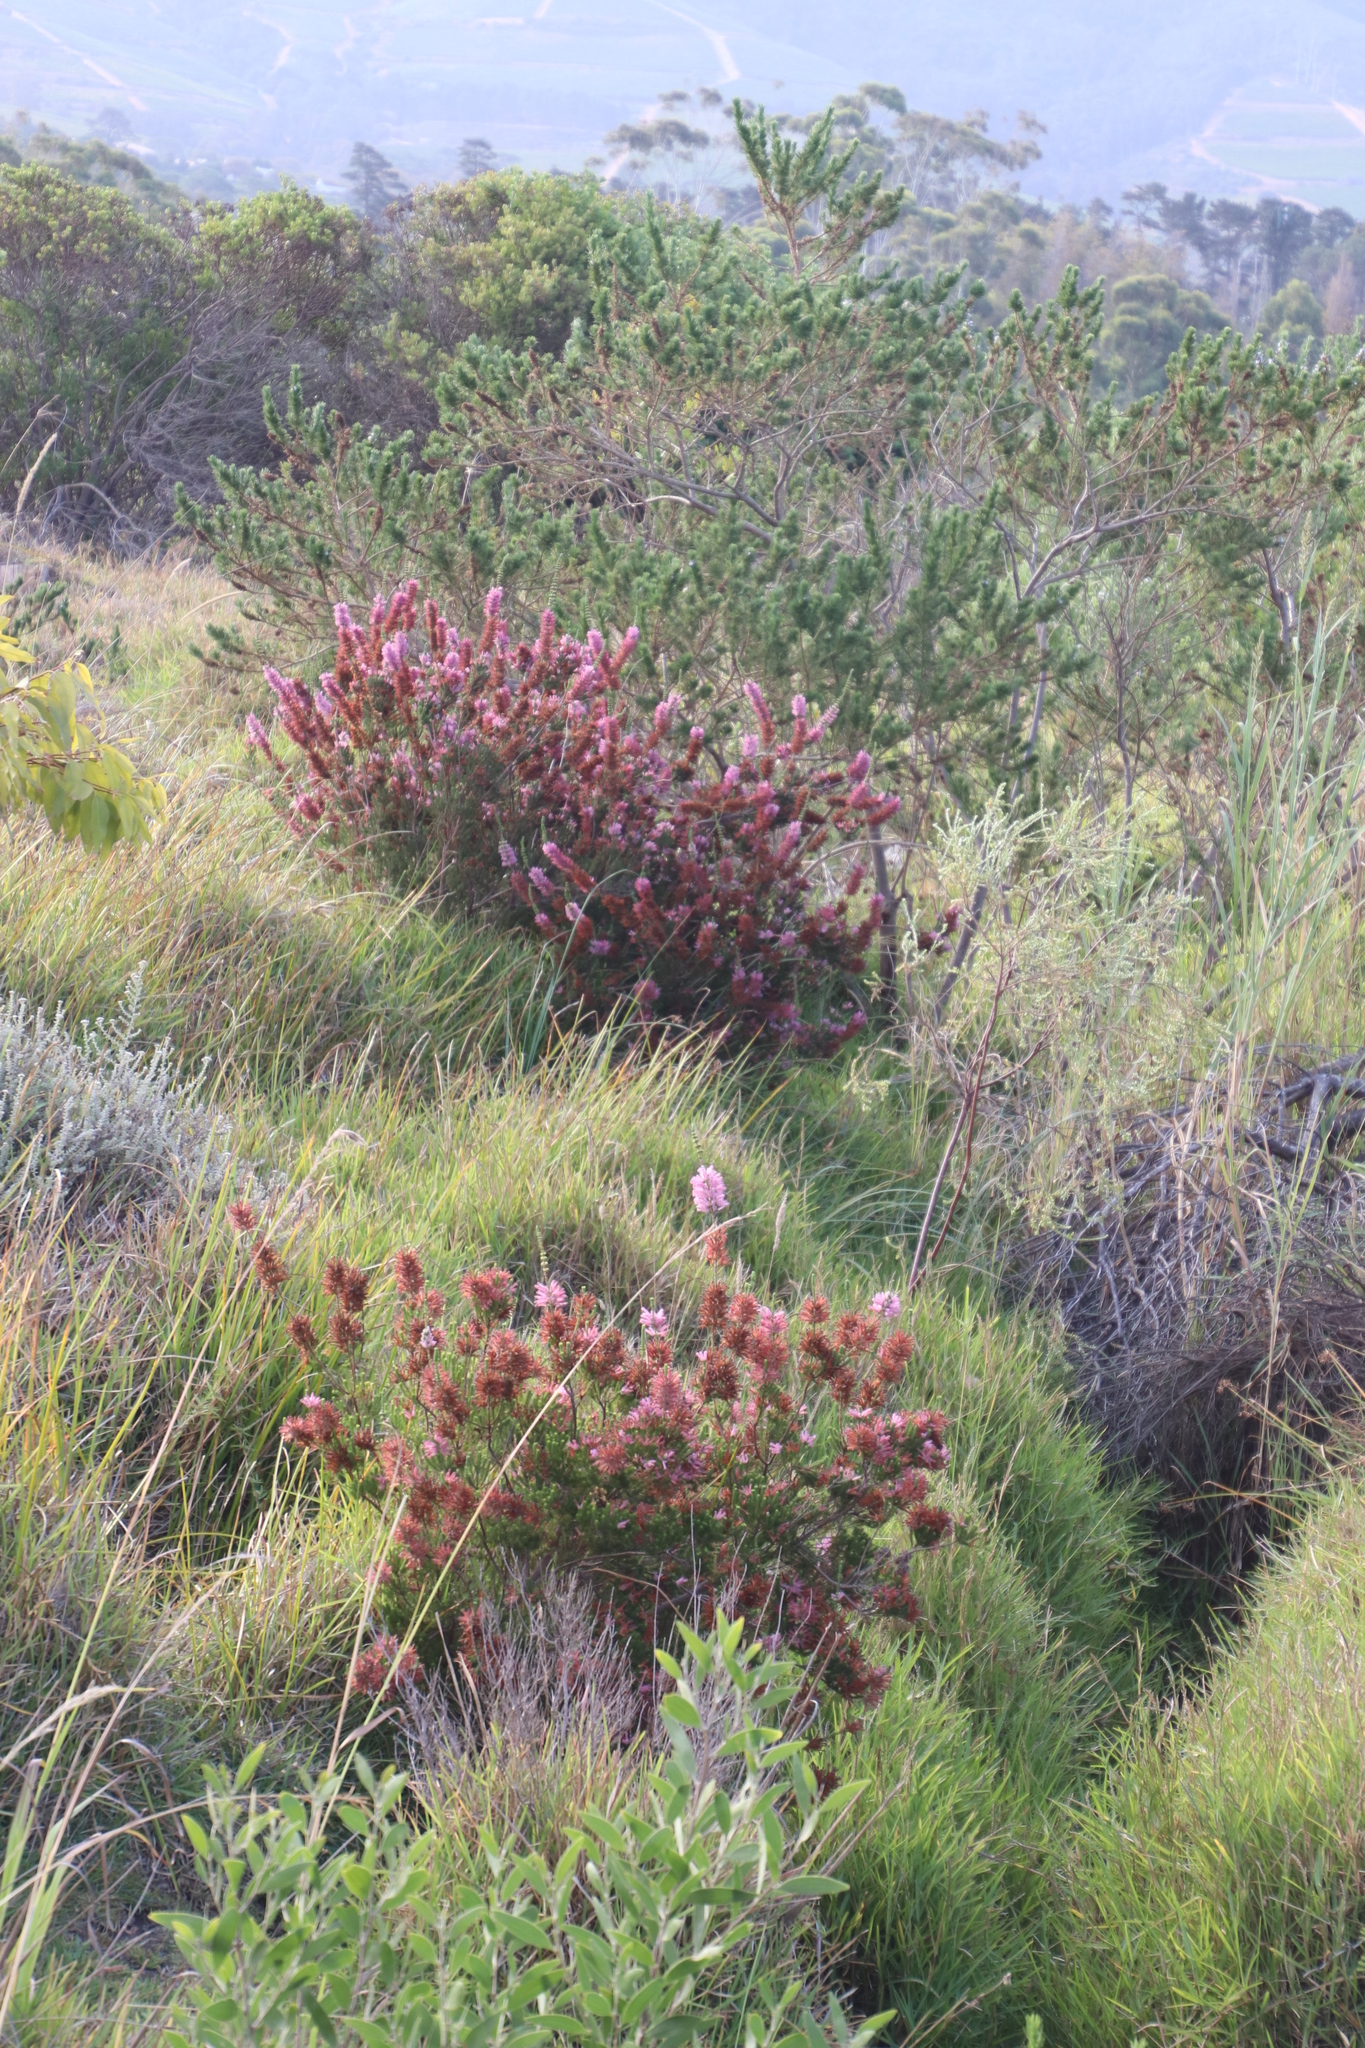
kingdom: Plantae
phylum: Tracheophyta
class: Magnoliopsida
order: Ericales
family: Ericaceae
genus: Erica
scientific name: Erica verticillata
